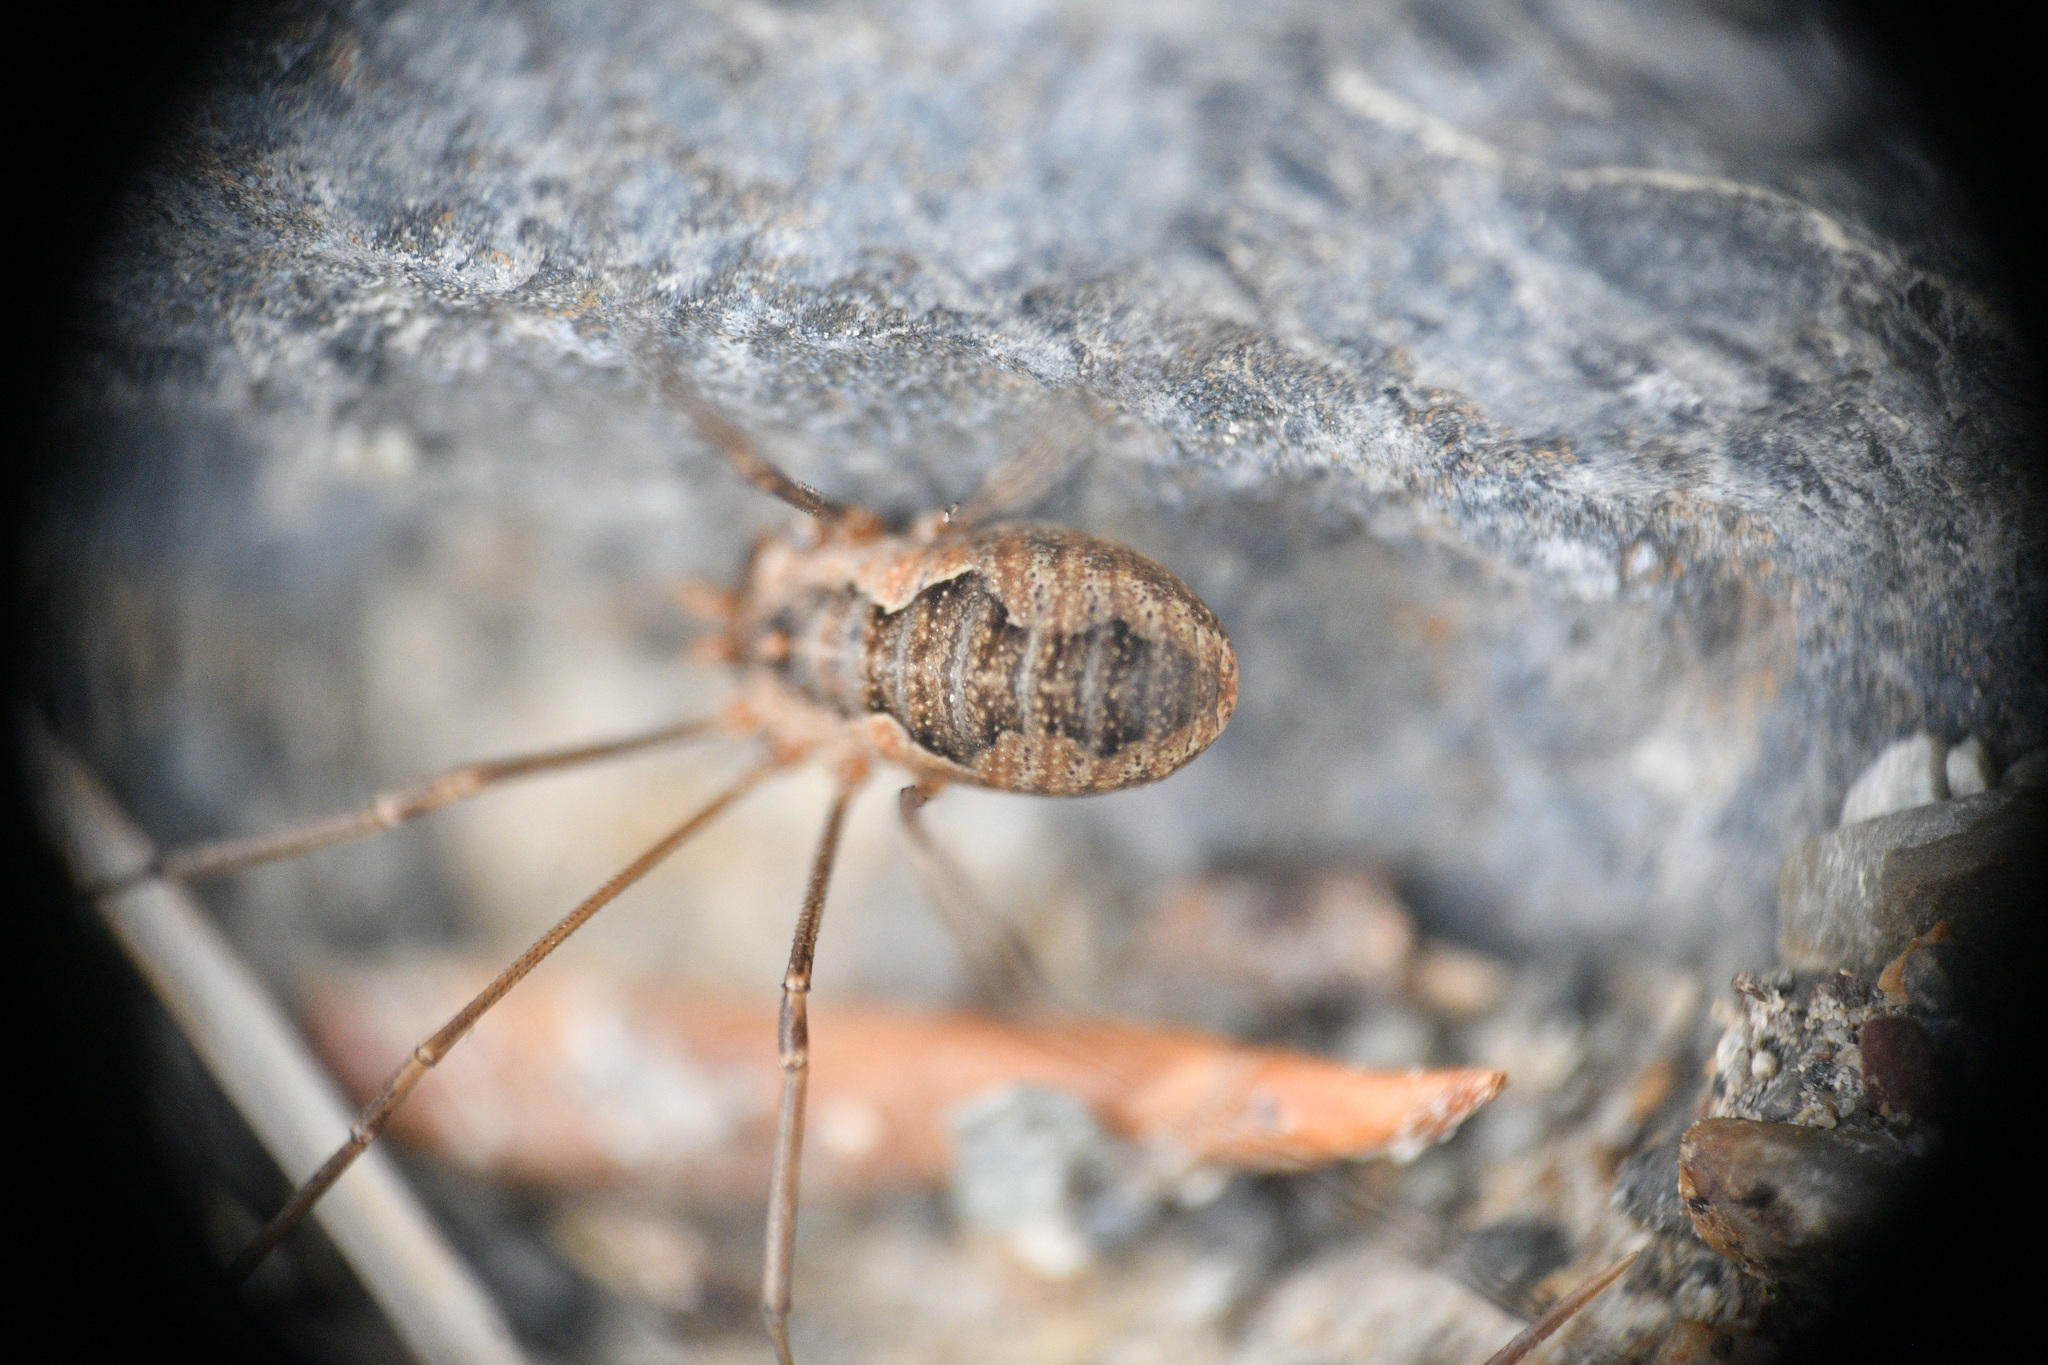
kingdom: Animalia
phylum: Arthropoda
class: Arachnida
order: Opiliones
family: Phalangiidae
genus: Phalangium
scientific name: Phalangium opilio
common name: Daddy longleg
